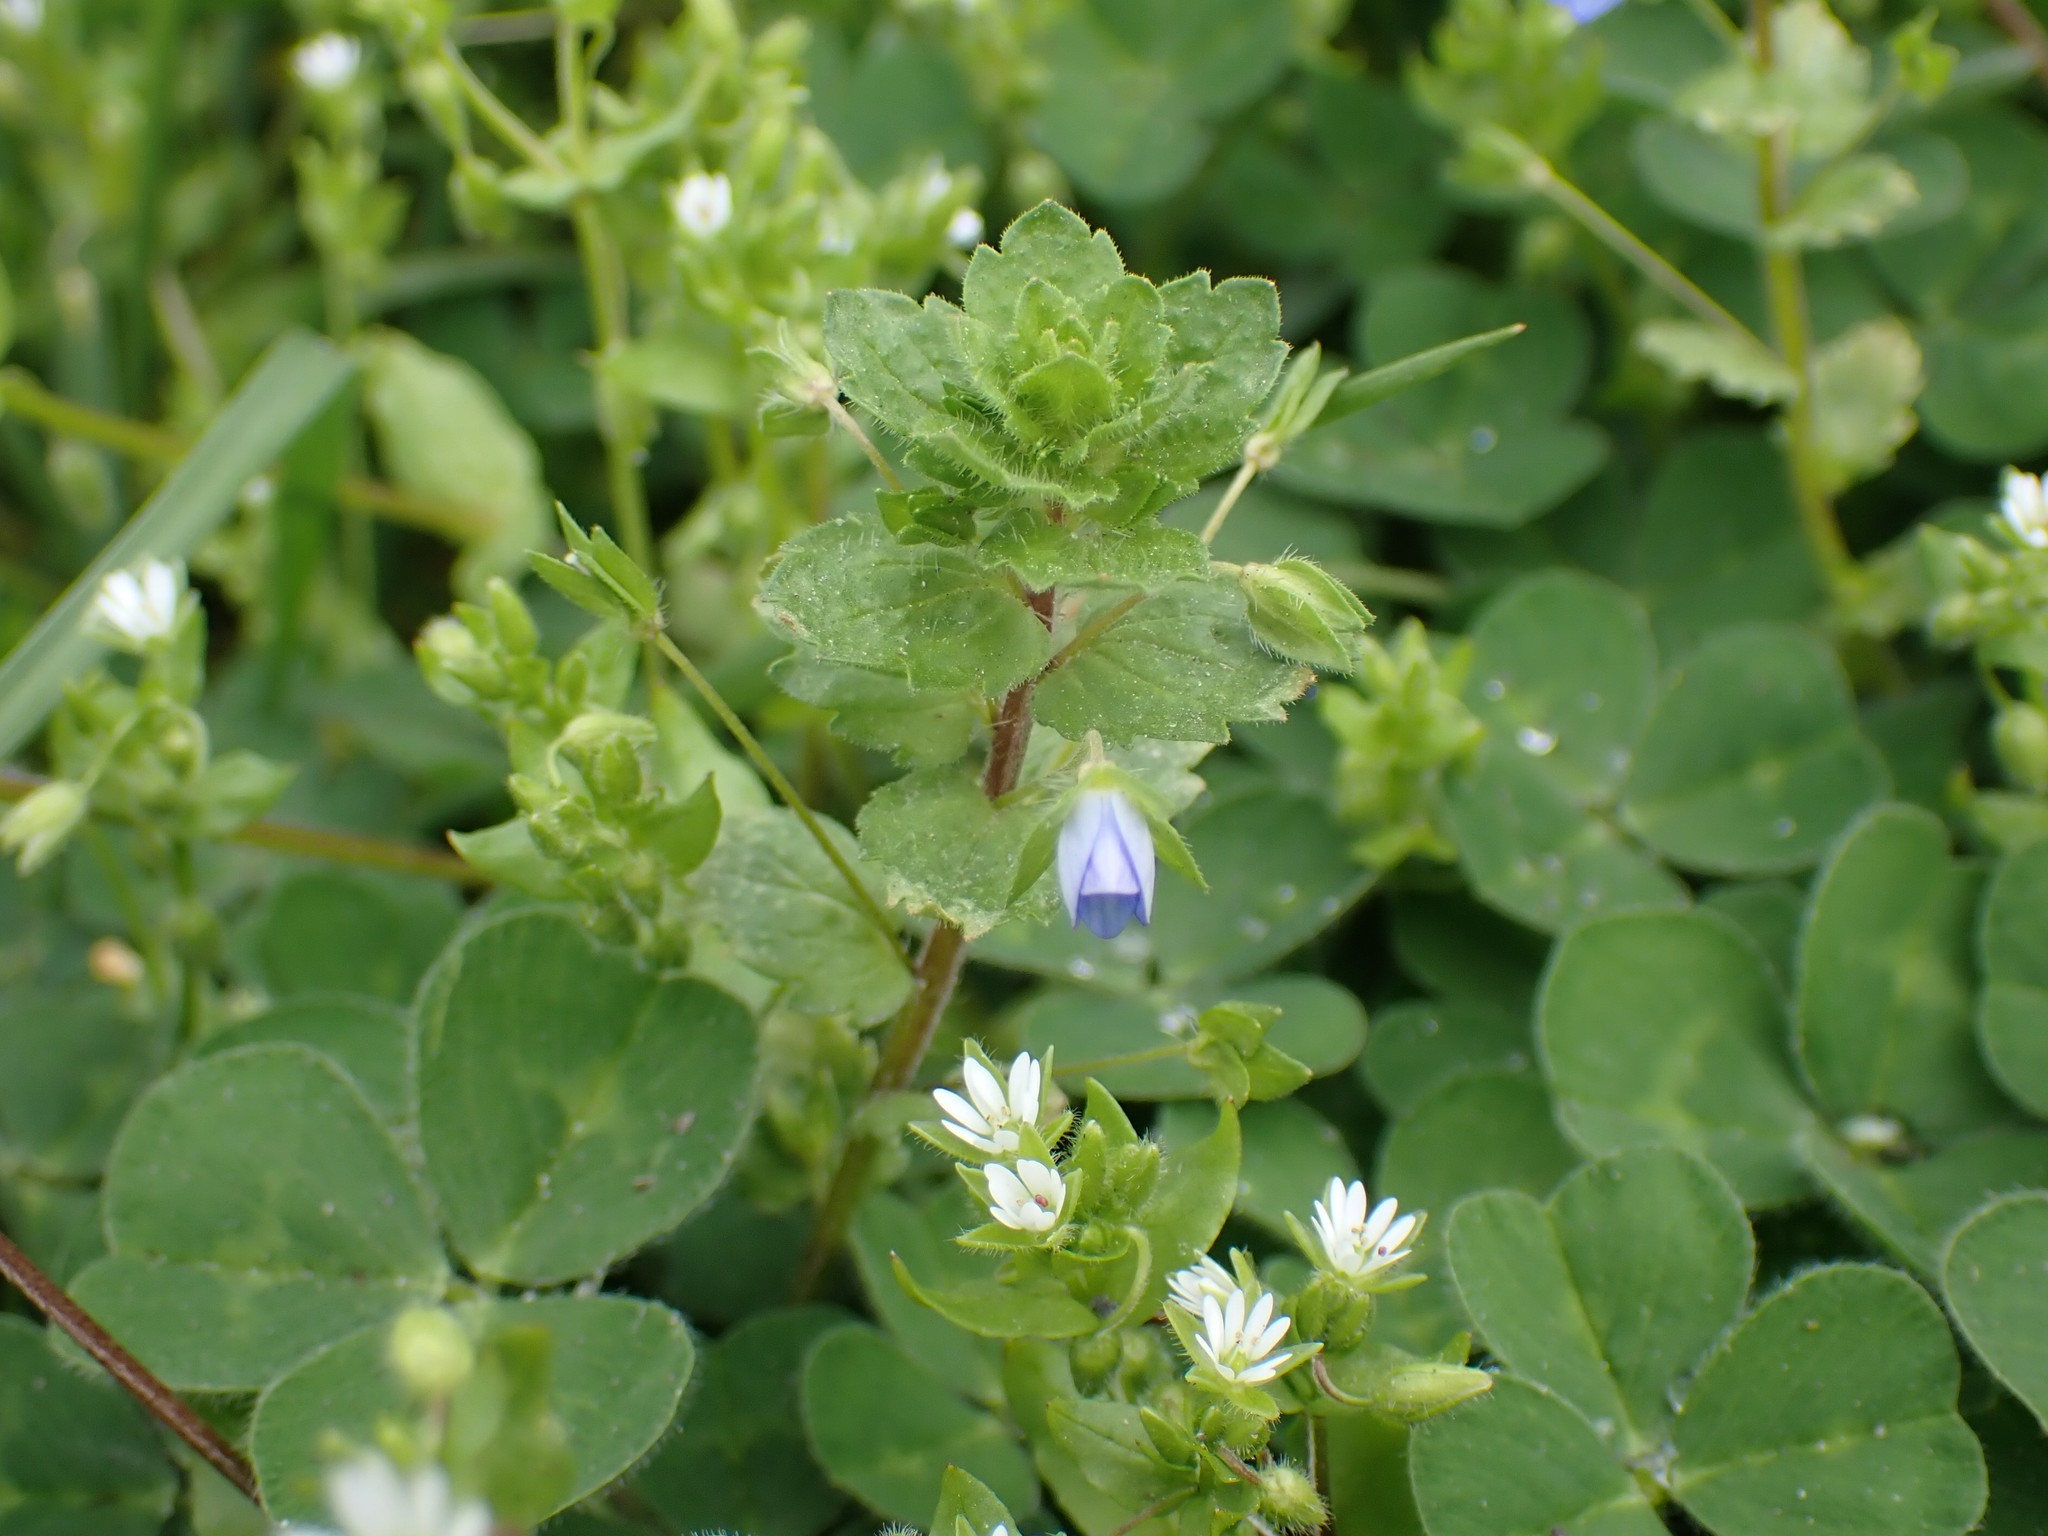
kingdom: Plantae
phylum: Tracheophyta
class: Magnoliopsida
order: Lamiales
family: Plantaginaceae
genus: Veronica
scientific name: Veronica persica
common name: Common field-speedwell
